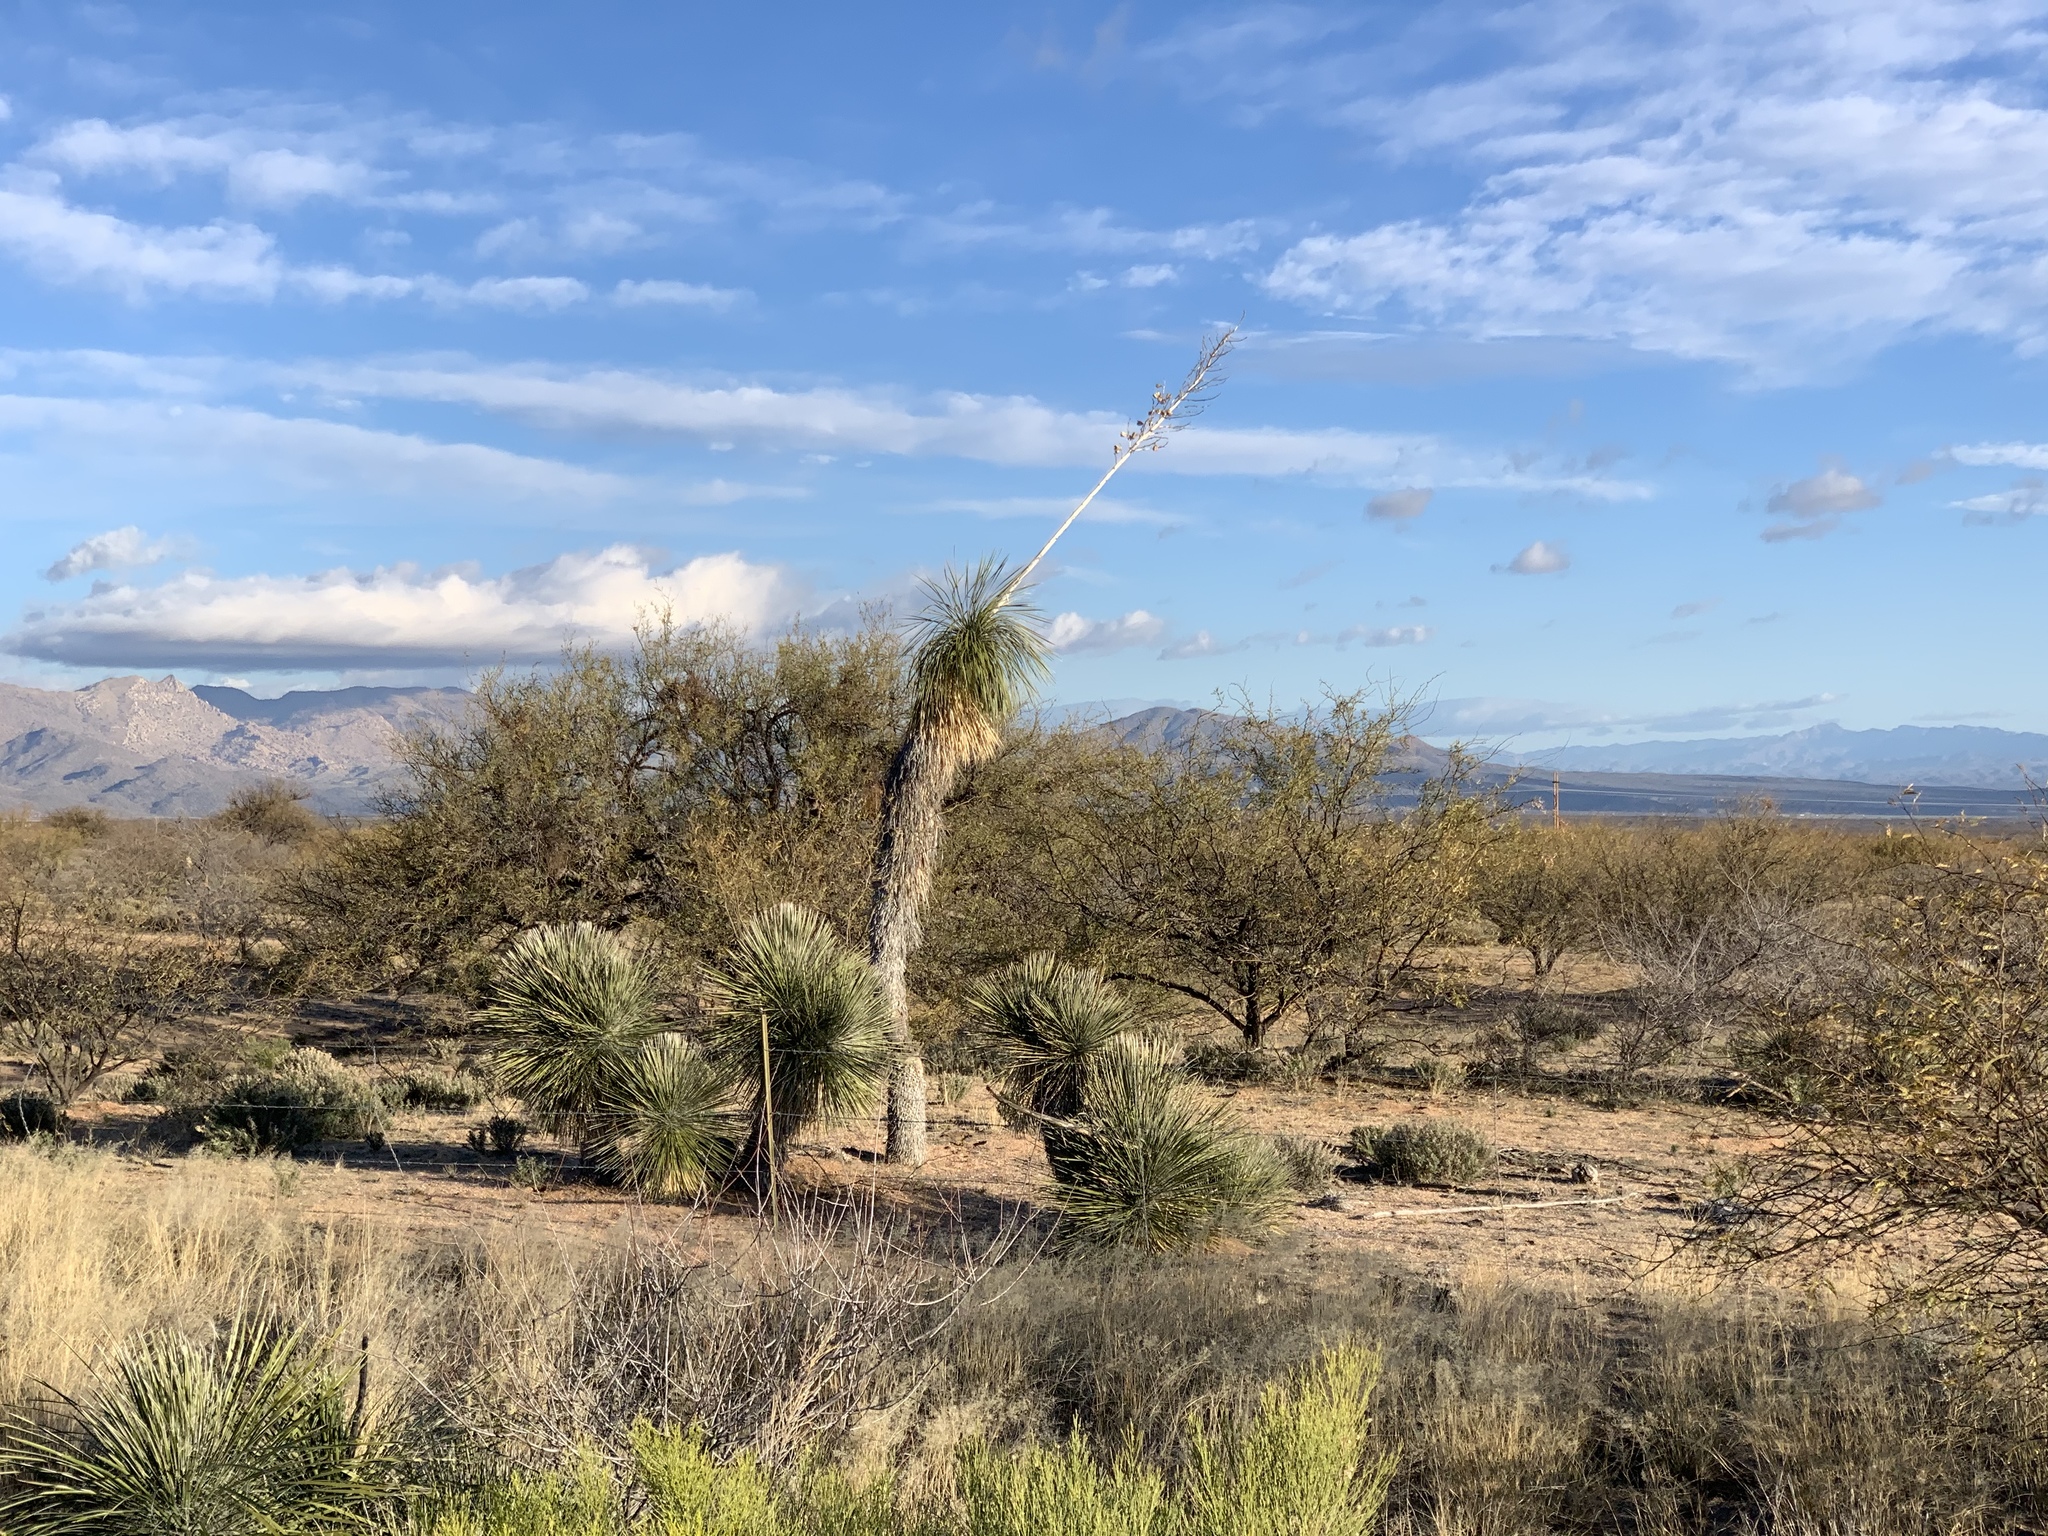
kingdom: Plantae
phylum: Tracheophyta
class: Liliopsida
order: Asparagales
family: Asparagaceae
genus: Yucca
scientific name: Yucca elata
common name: Palmella
